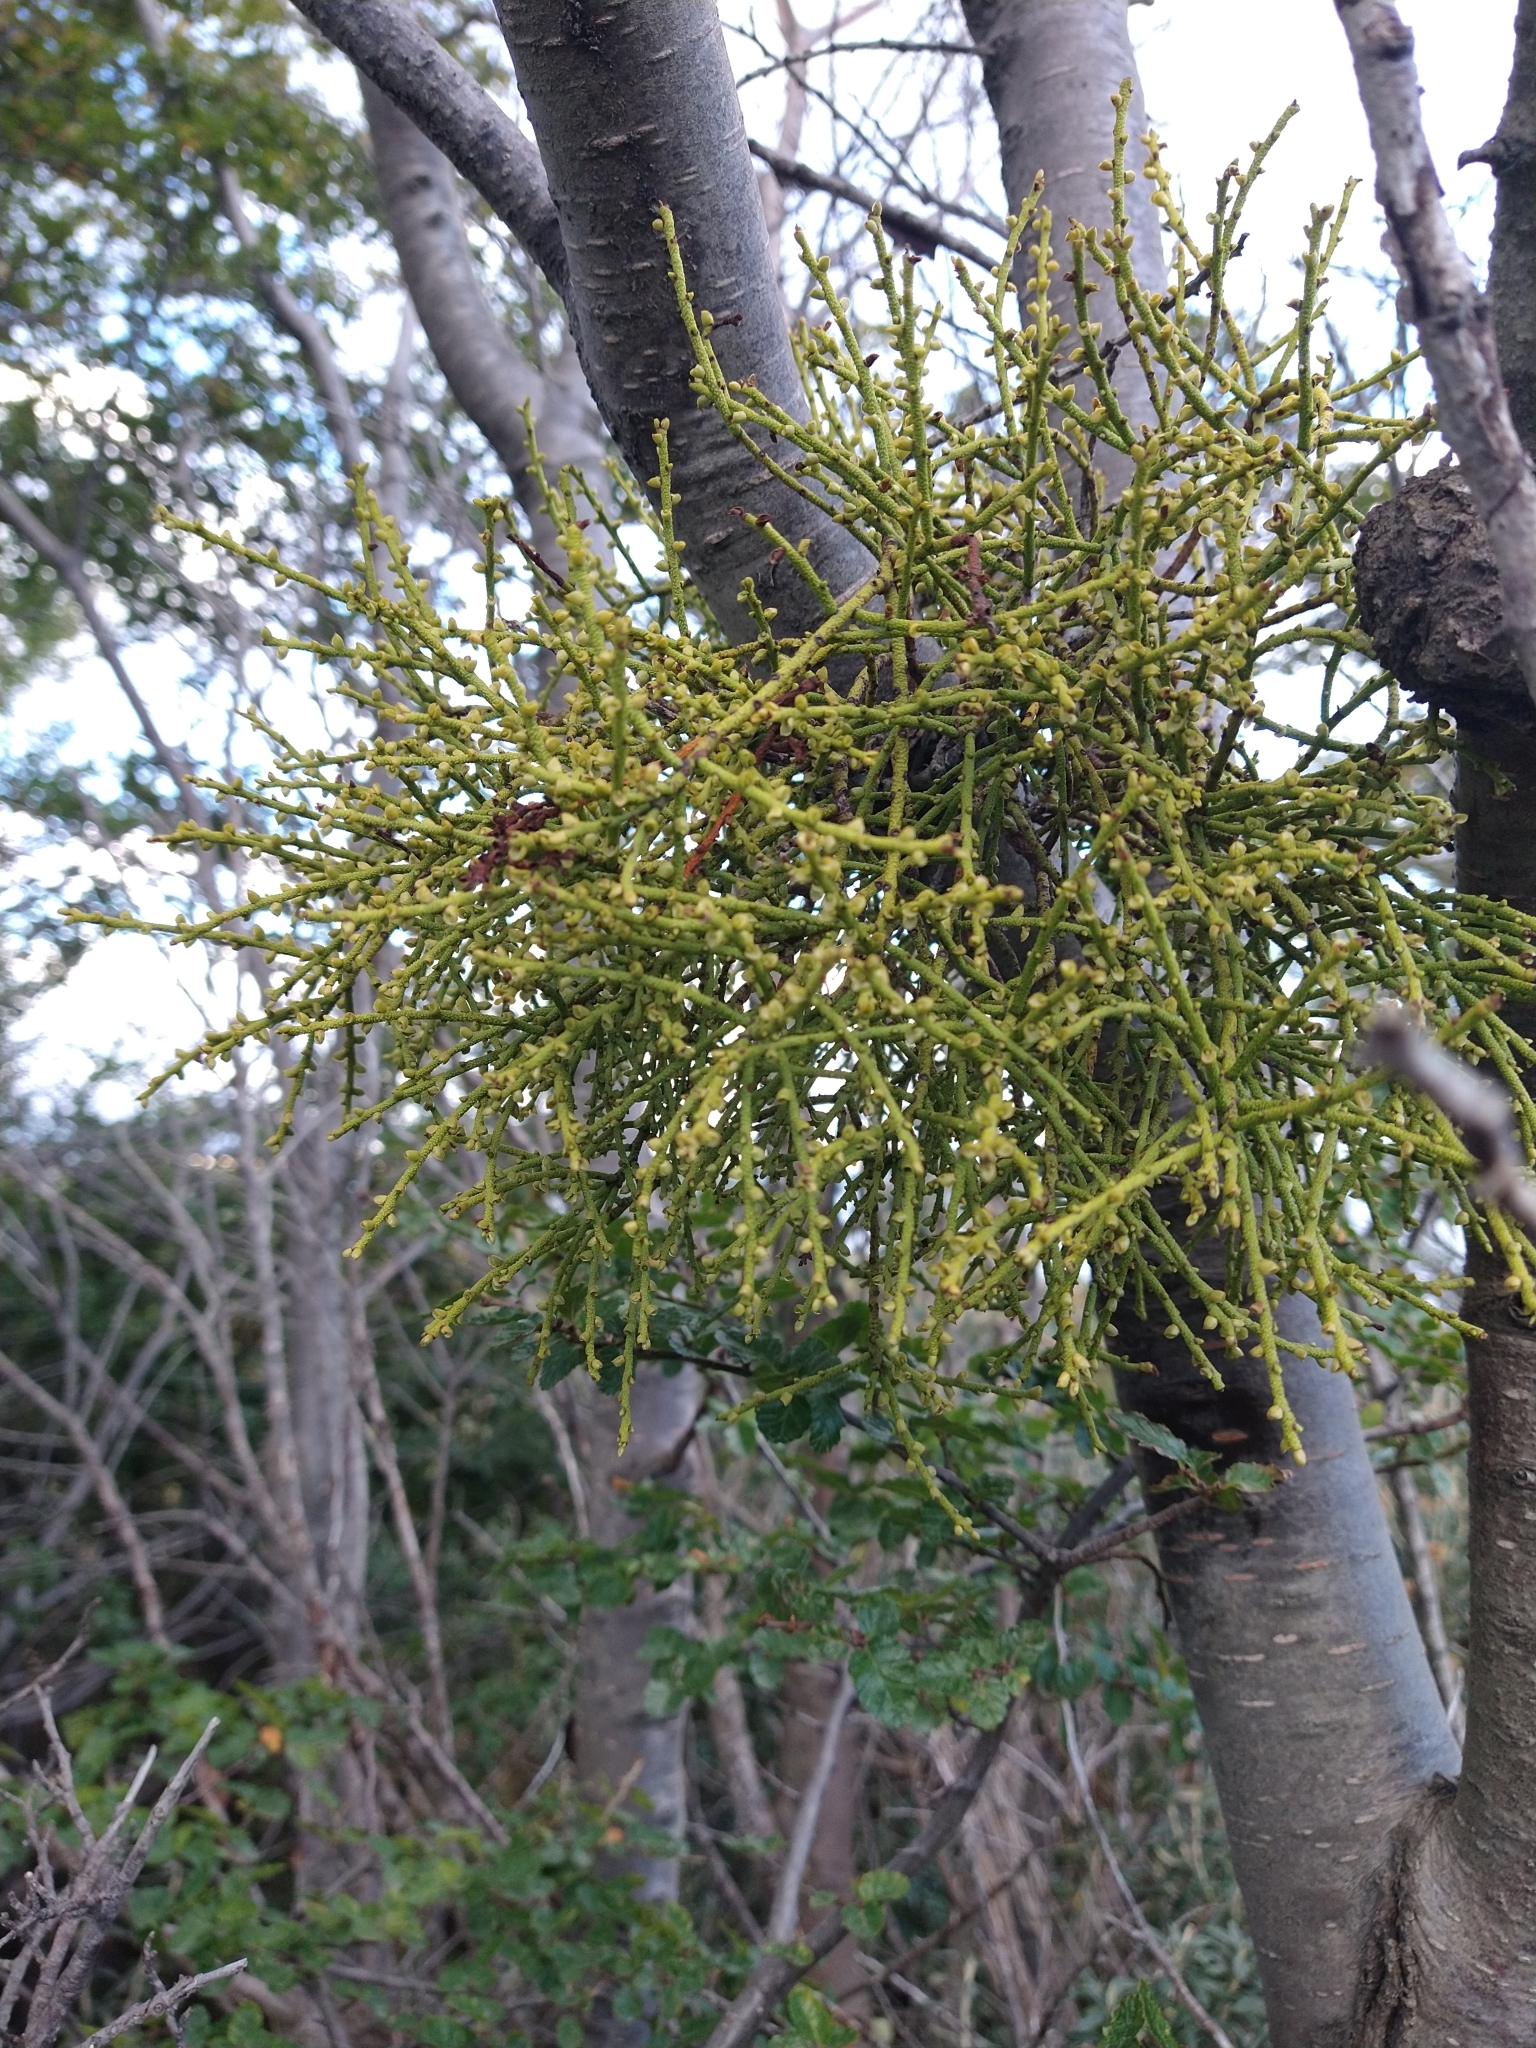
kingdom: Plantae
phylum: Tracheophyta
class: Magnoliopsida
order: Santalales
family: Misodendraceae
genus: Misodendrum
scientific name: Misodendrum punctulatum
